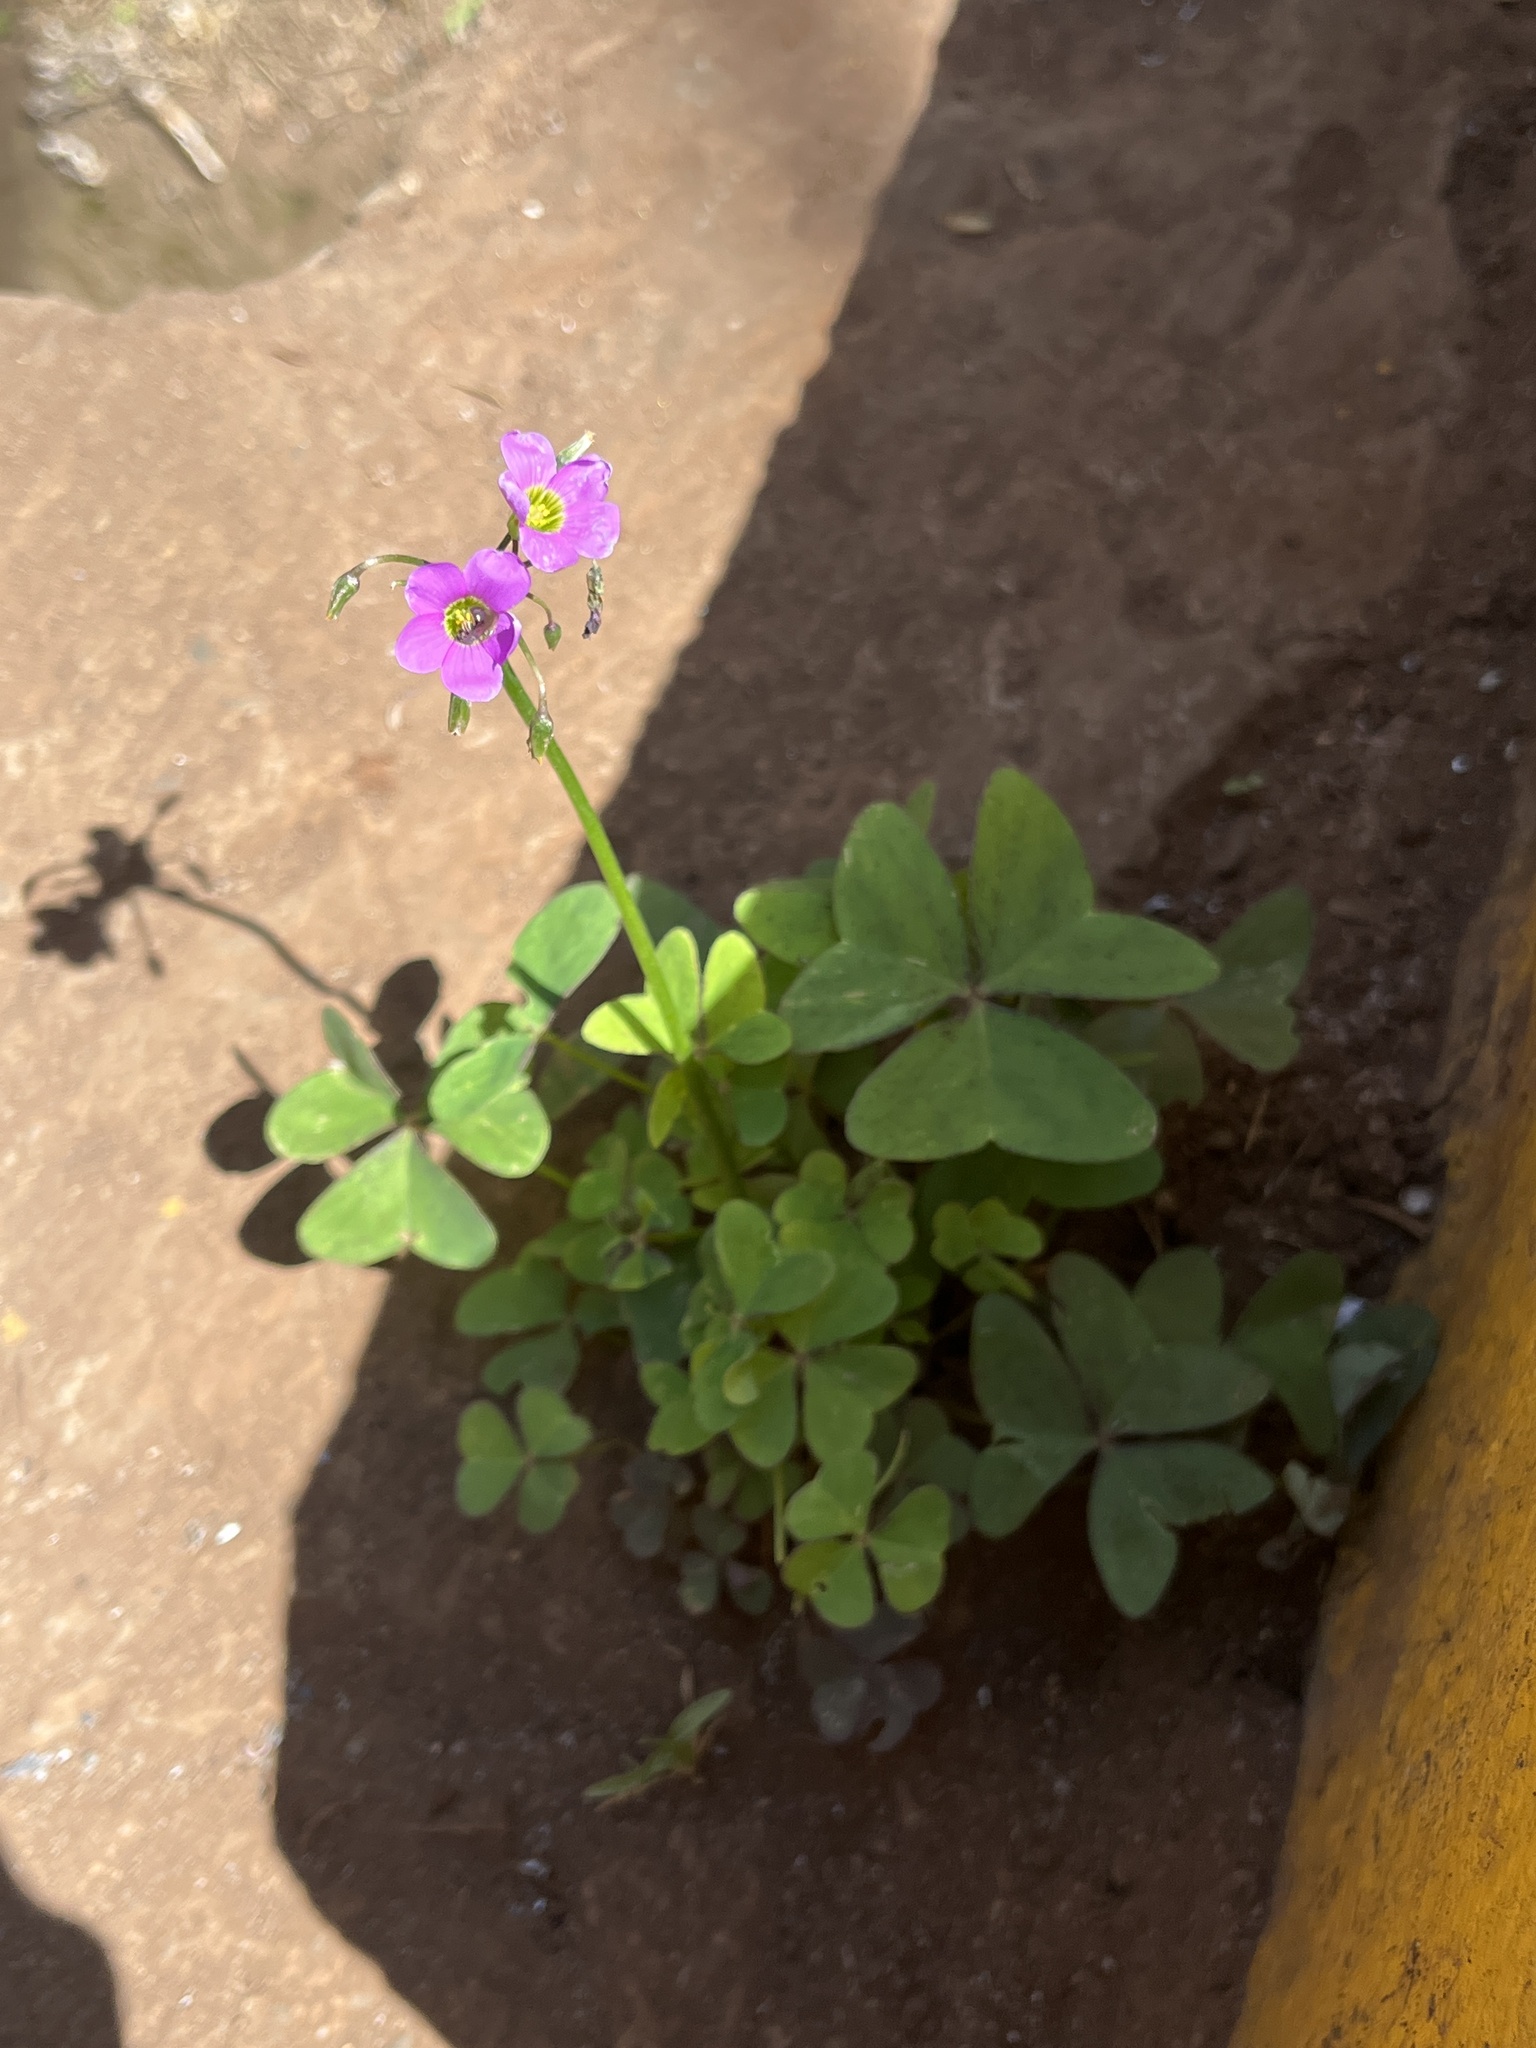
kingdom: Plantae
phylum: Tracheophyta
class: Magnoliopsida
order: Oxalidales
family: Oxalidaceae
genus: Oxalis
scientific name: Oxalis latifolia
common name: Garden pink-sorrel
